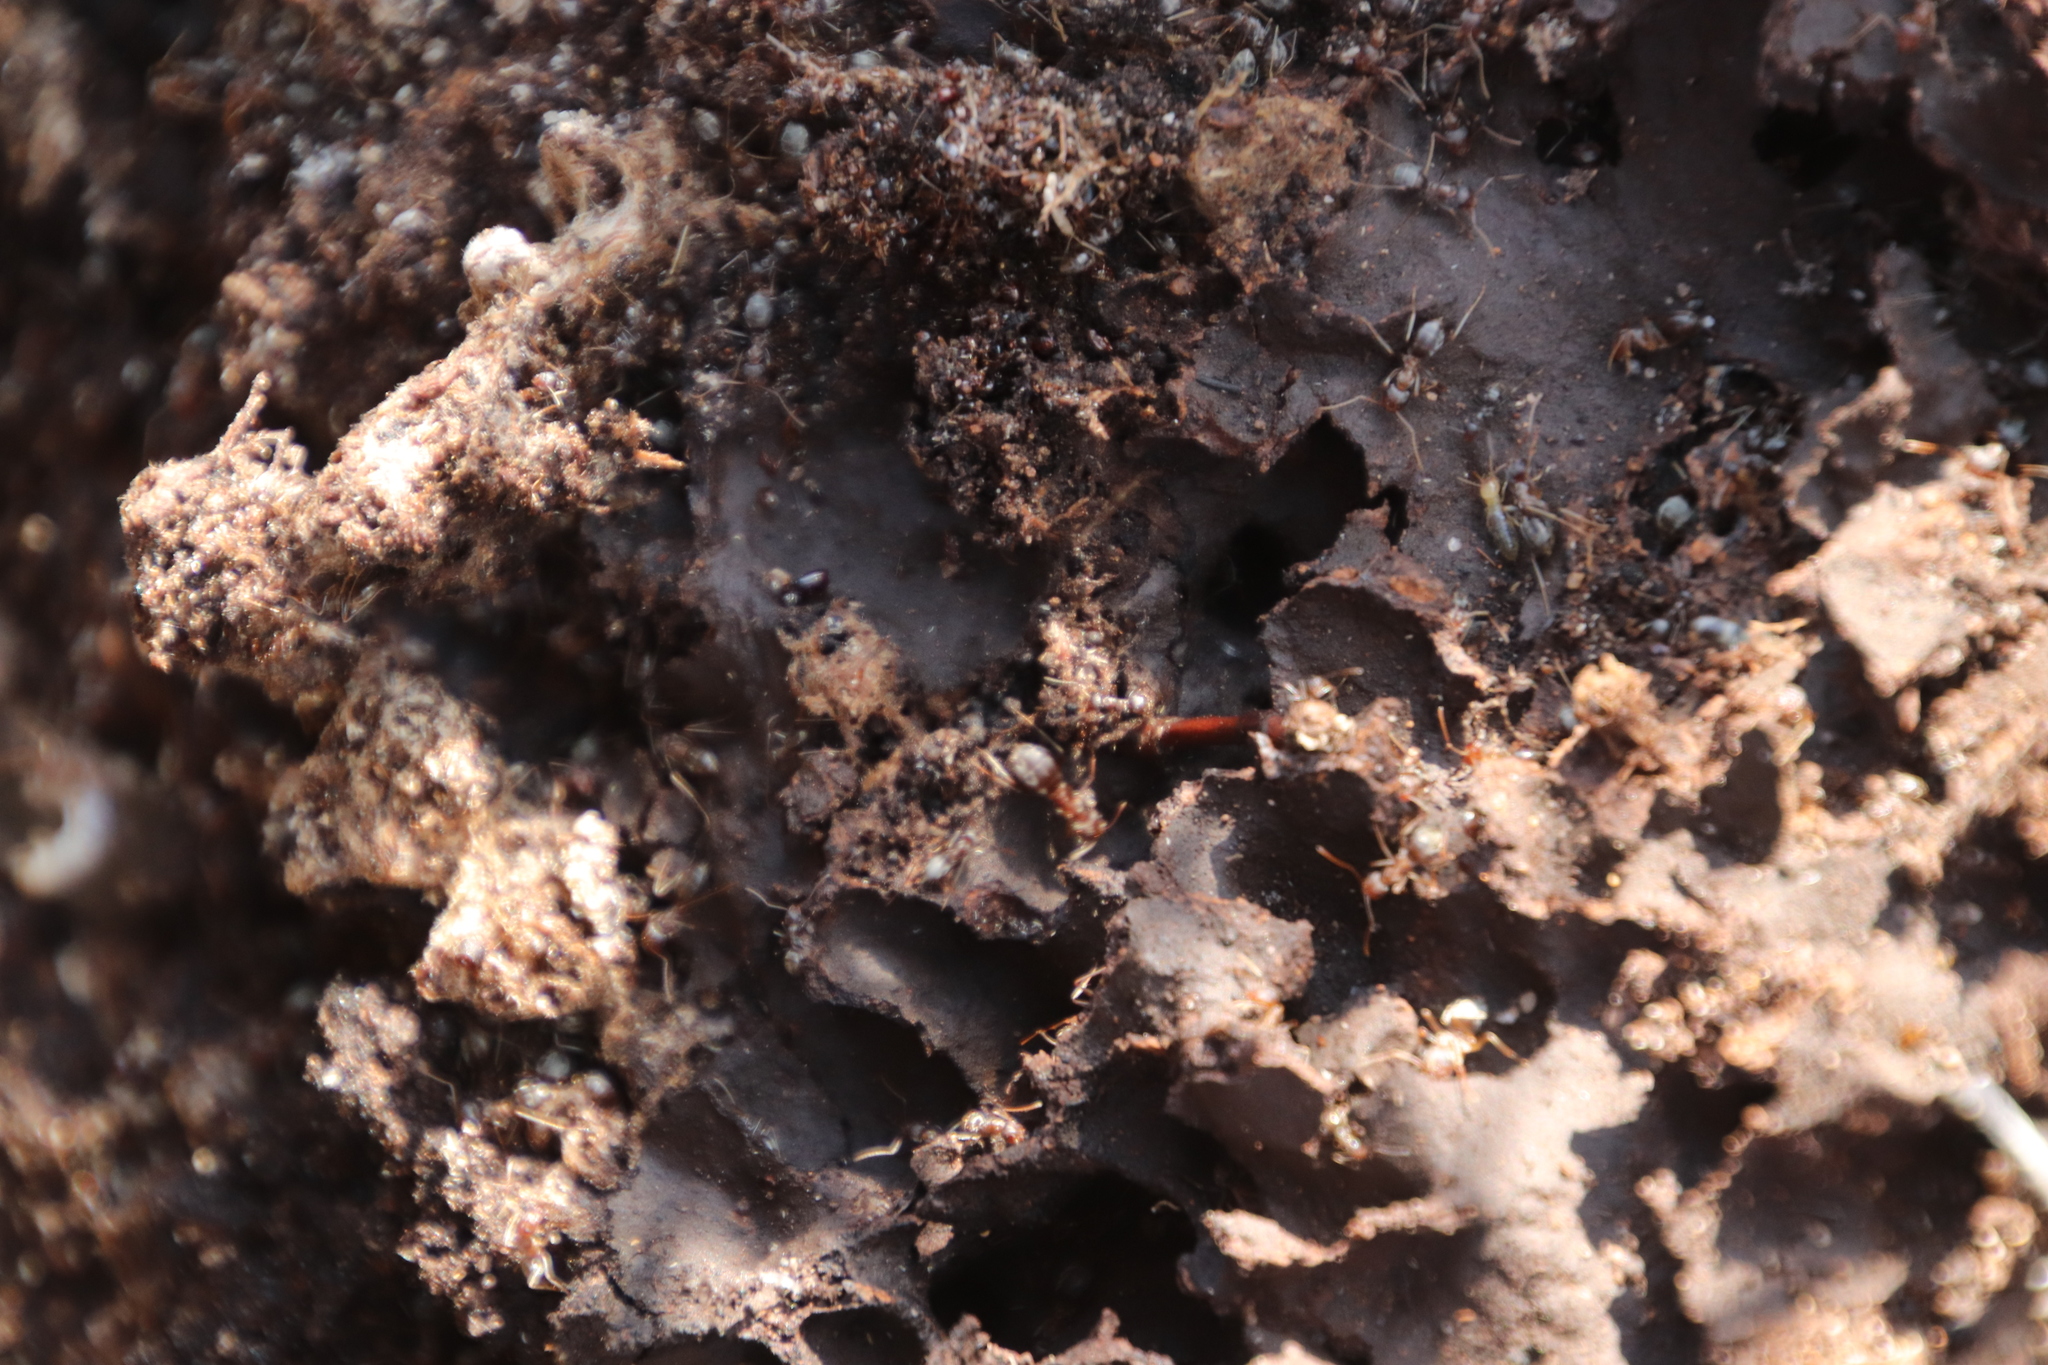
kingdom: Animalia
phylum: Arthropoda
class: Insecta
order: Hymenoptera
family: Formicidae
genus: Anoplolepis
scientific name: Anoplolepis custodiens
